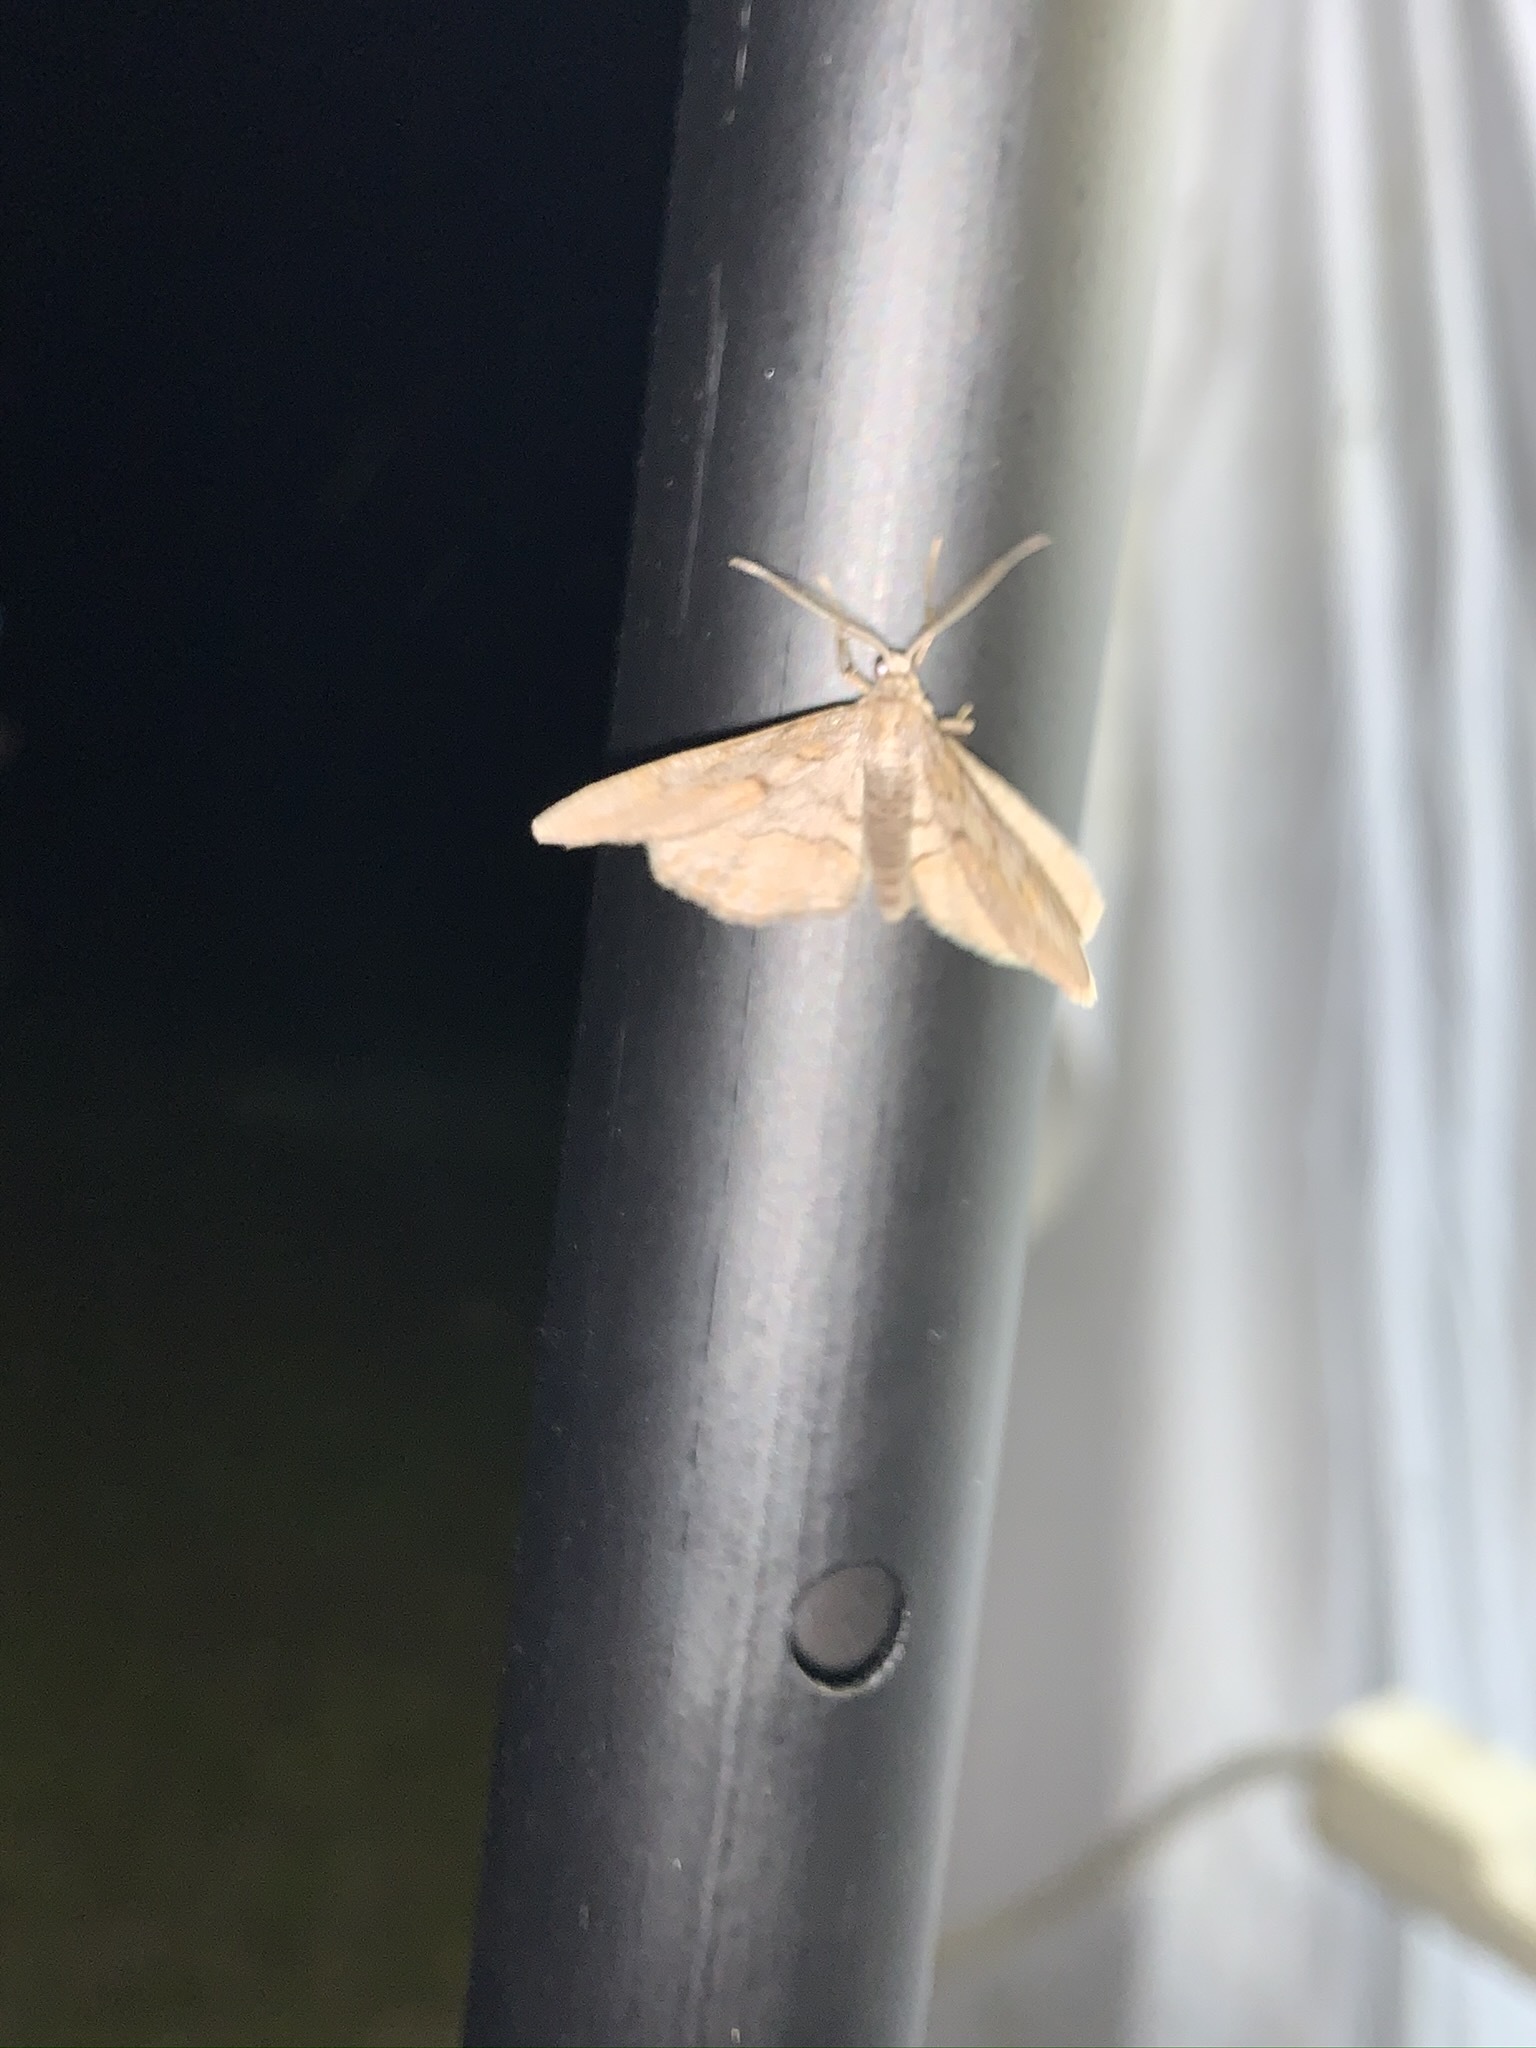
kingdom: Animalia
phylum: Arthropoda
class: Insecta
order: Lepidoptera
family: Geometridae
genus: Iridopsis
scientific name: Iridopsis vellivolata
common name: Large purplish gray
